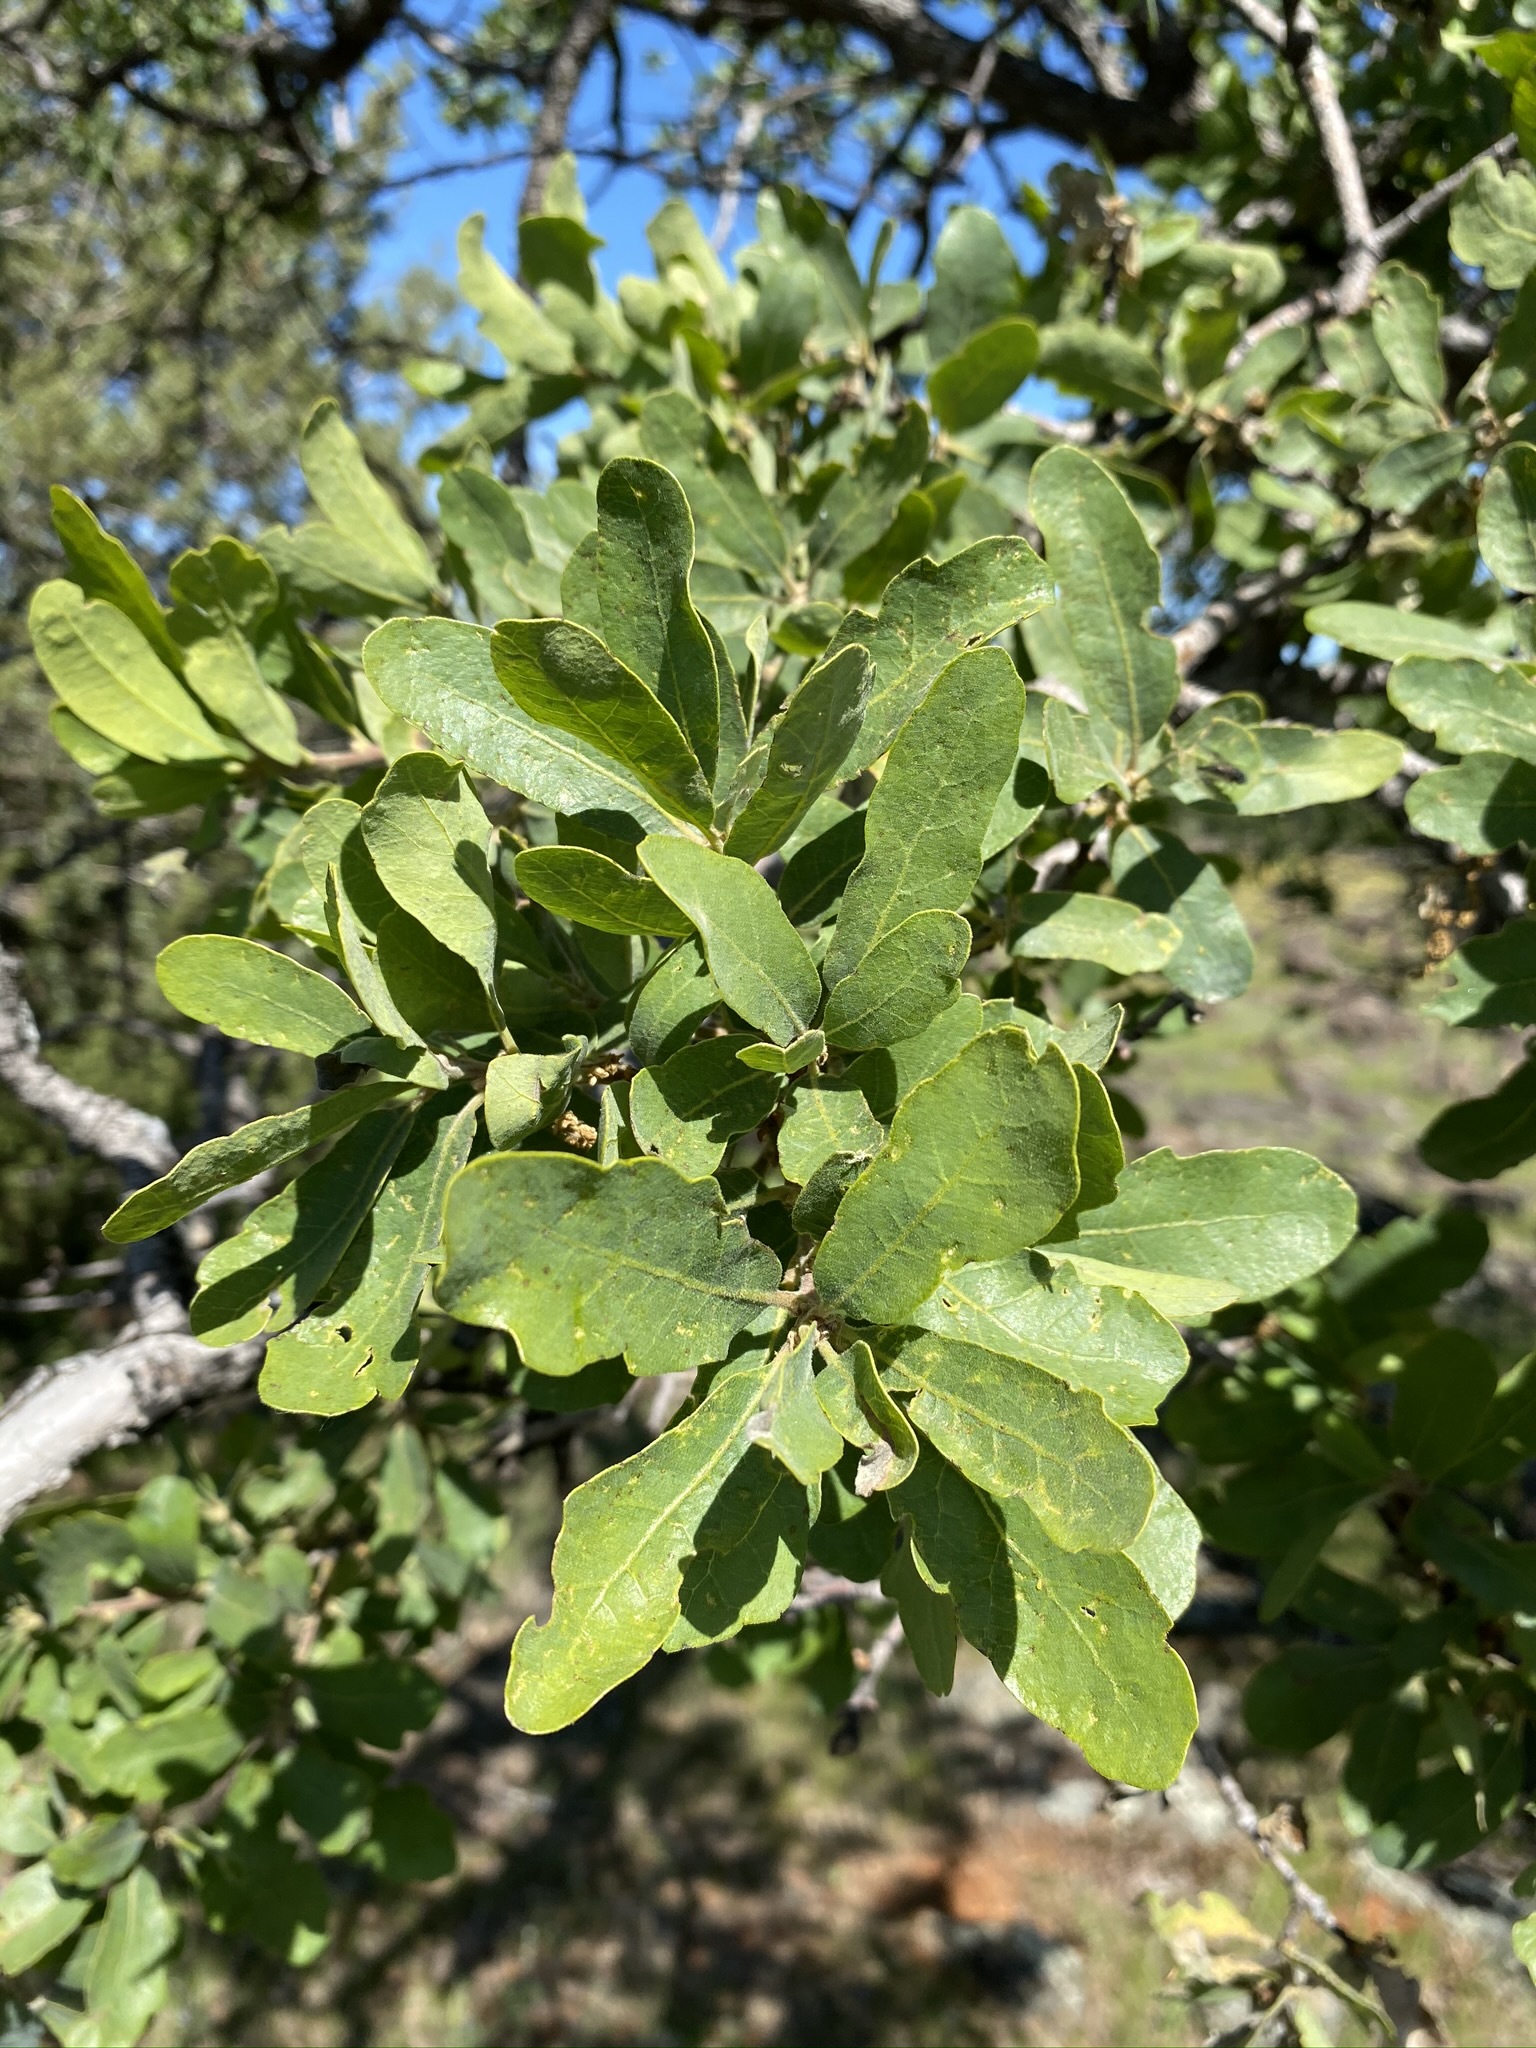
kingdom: Plantae
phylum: Tracheophyta
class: Magnoliopsida
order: Fagales
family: Fagaceae
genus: Quercus
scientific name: Quercus douglasii
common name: Blue oak
